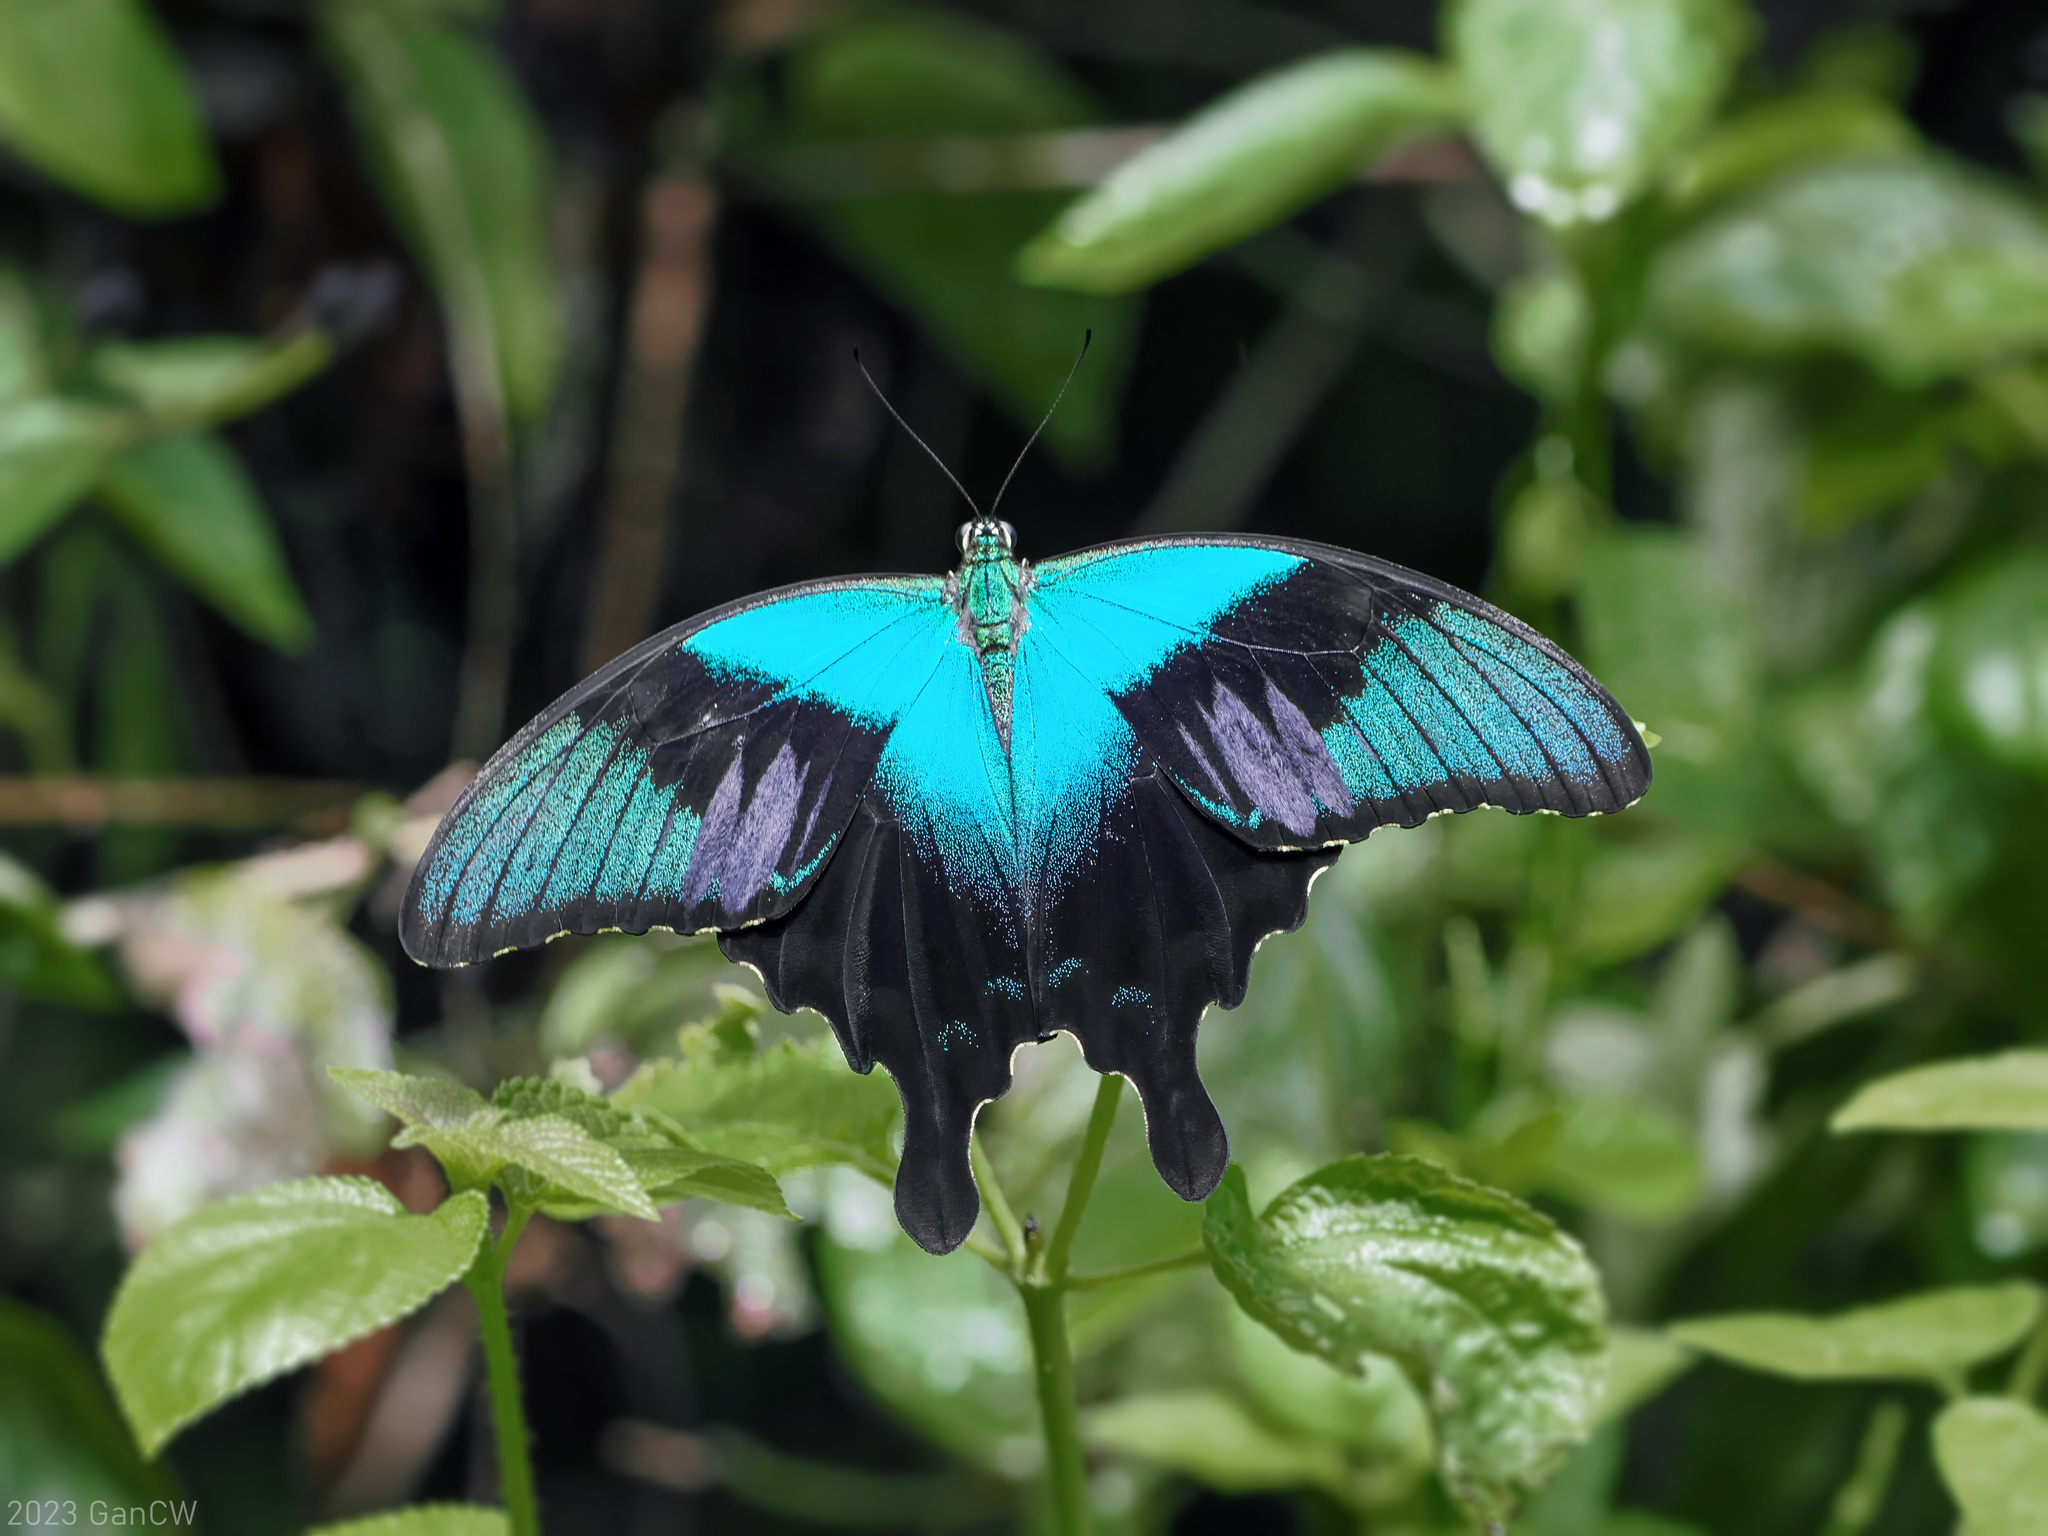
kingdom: Animalia
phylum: Arthropoda
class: Insecta
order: Lepidoptera
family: Papilionidae
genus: Papilio
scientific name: Papilio peranthus
